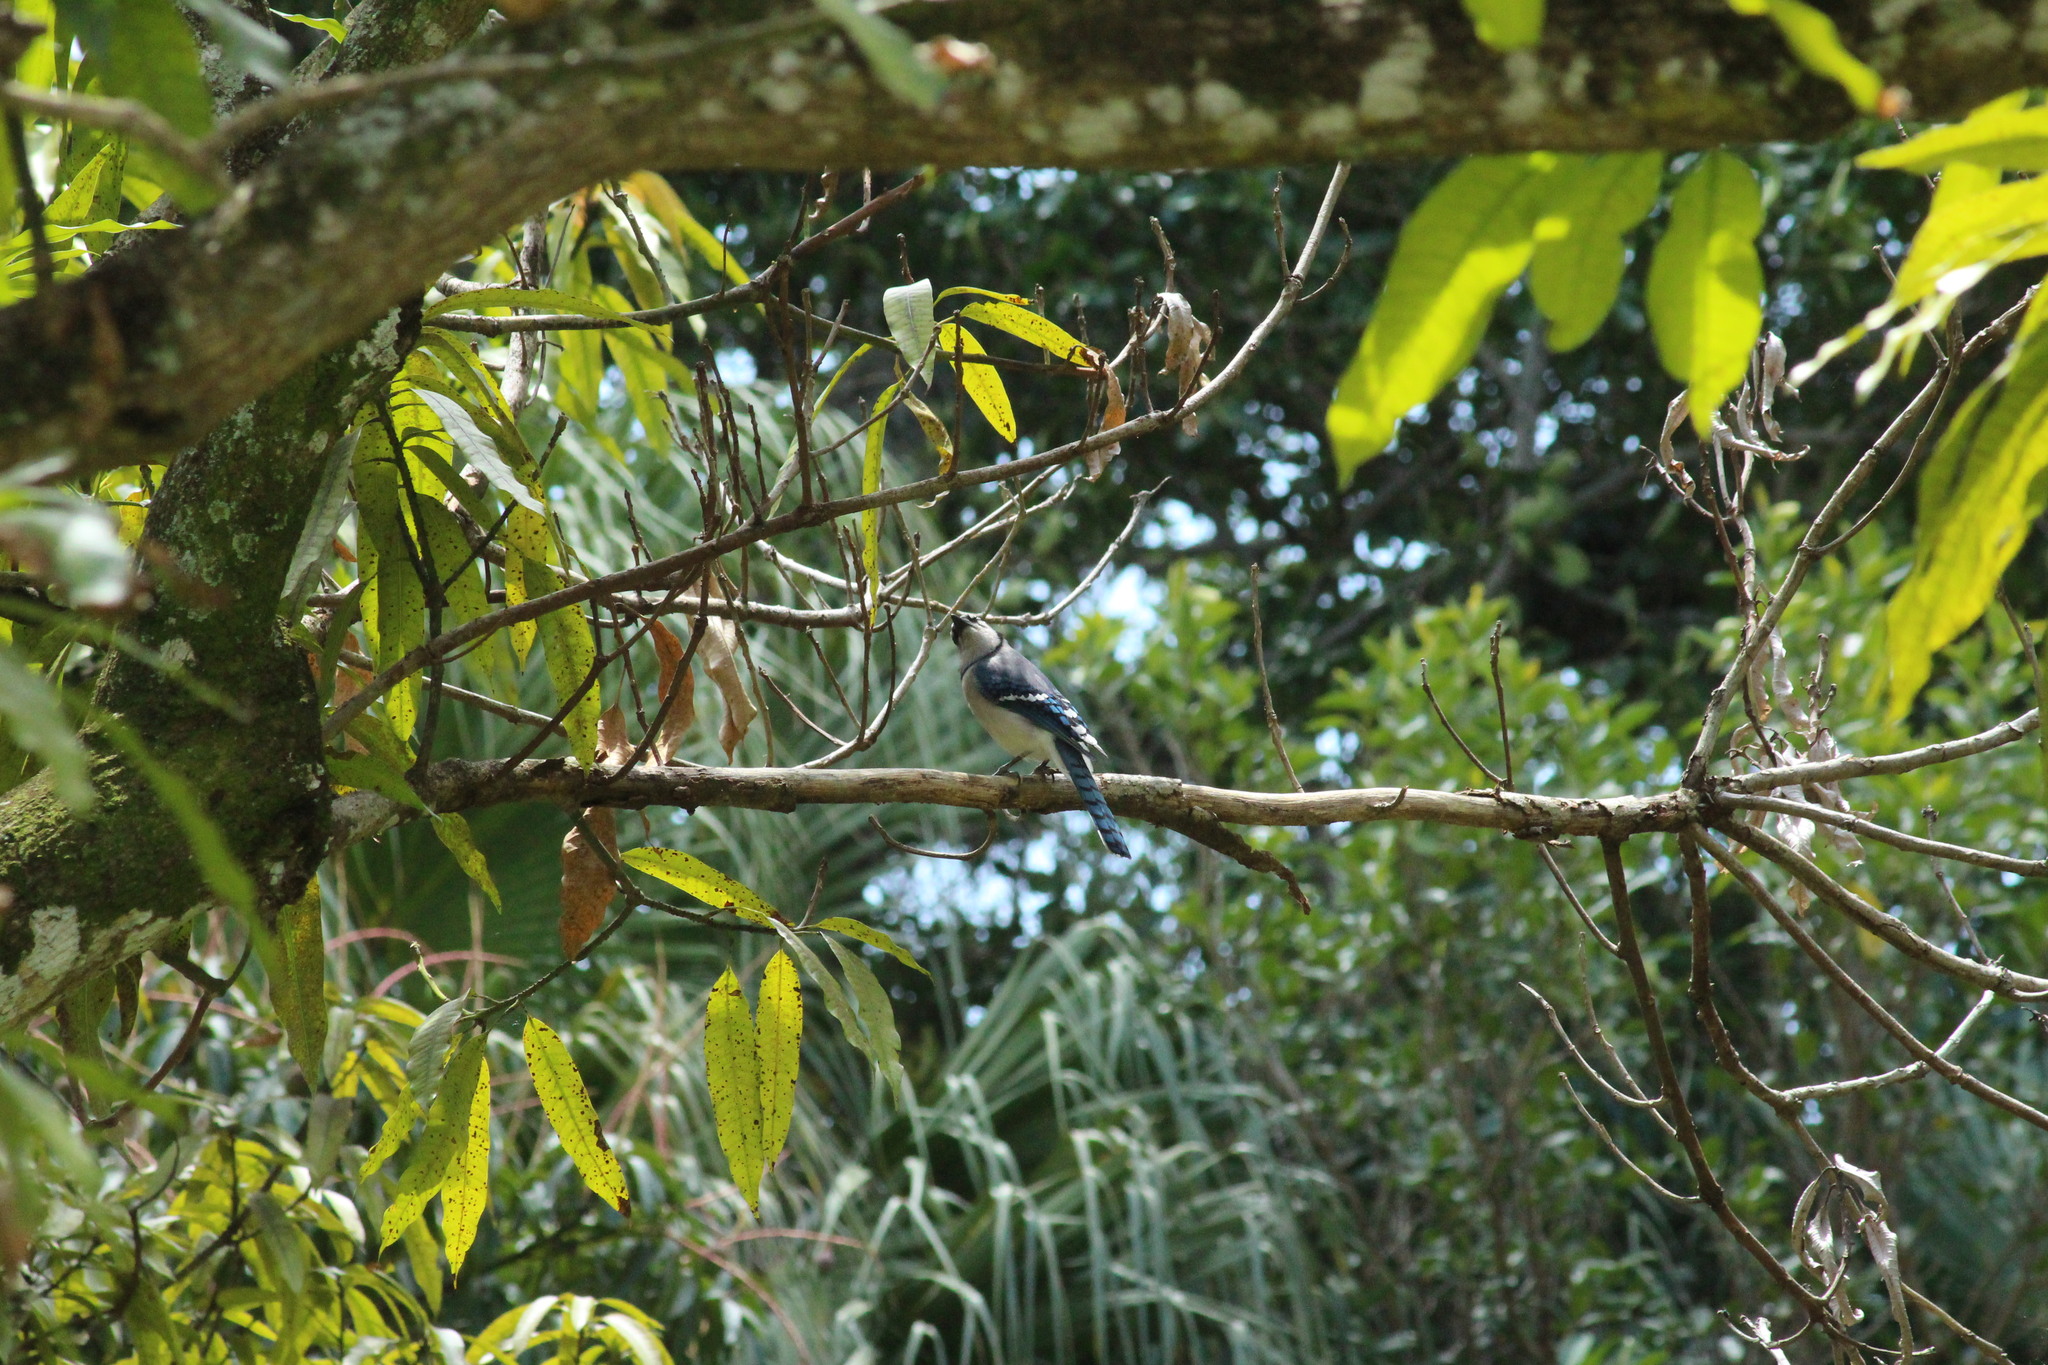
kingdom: Animalia
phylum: Chordata
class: Aves
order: Passeriformes
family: Corvidae
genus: Cyanocitta
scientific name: Cyanocitta cristata
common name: Blue jay
